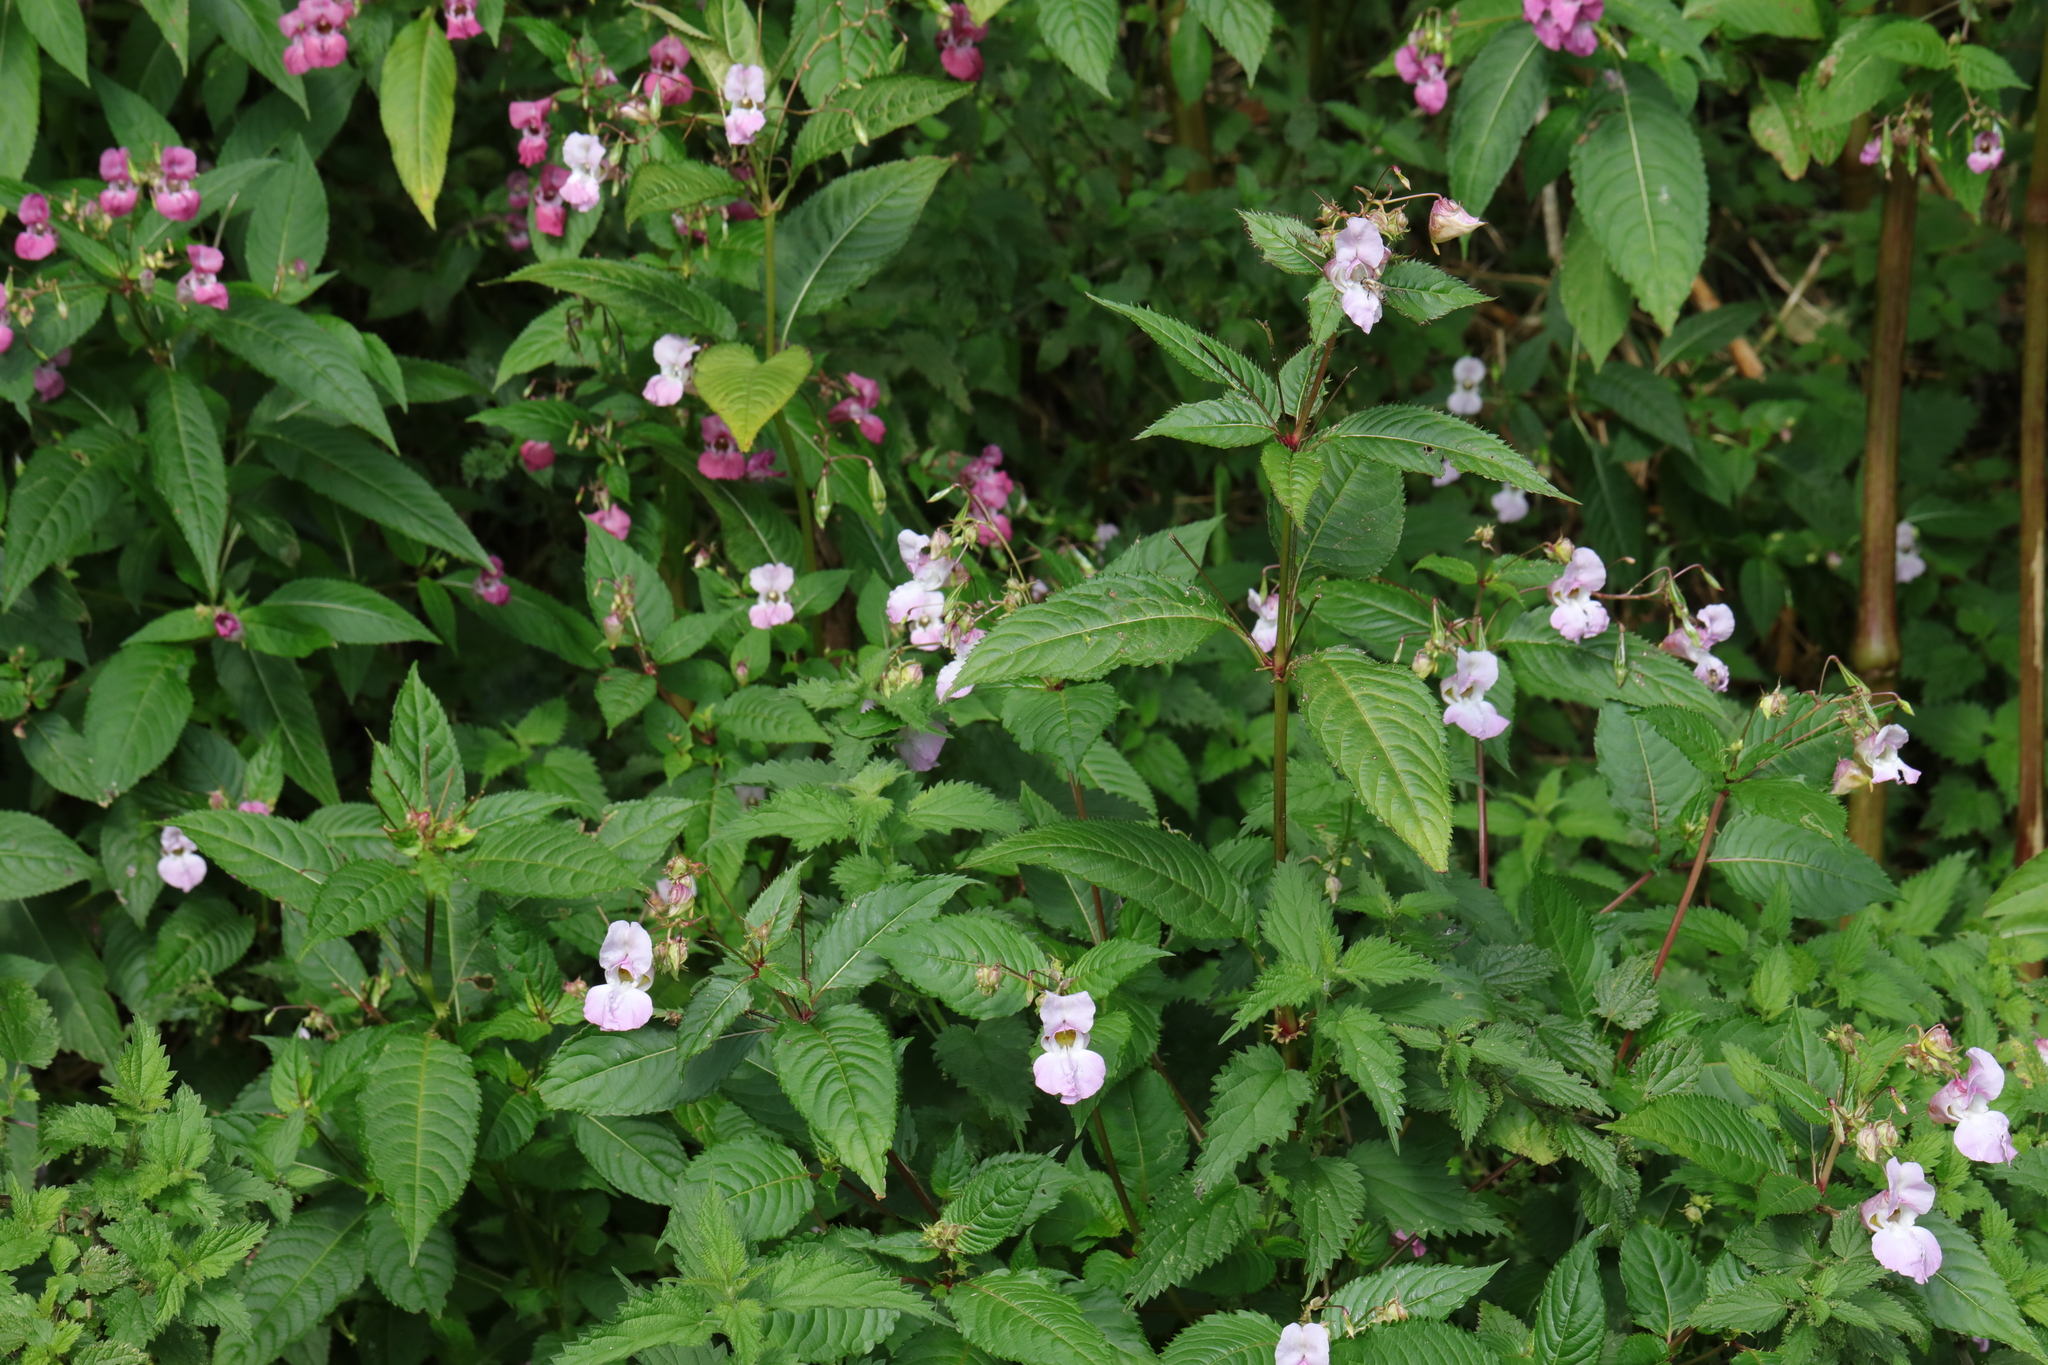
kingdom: Plantae
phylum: Tracheophyta
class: Magnoliopsida
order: Ericales
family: Balsaminaceae
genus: Impatiens
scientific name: Impatiens glandulifera
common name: Himalayan balsam
